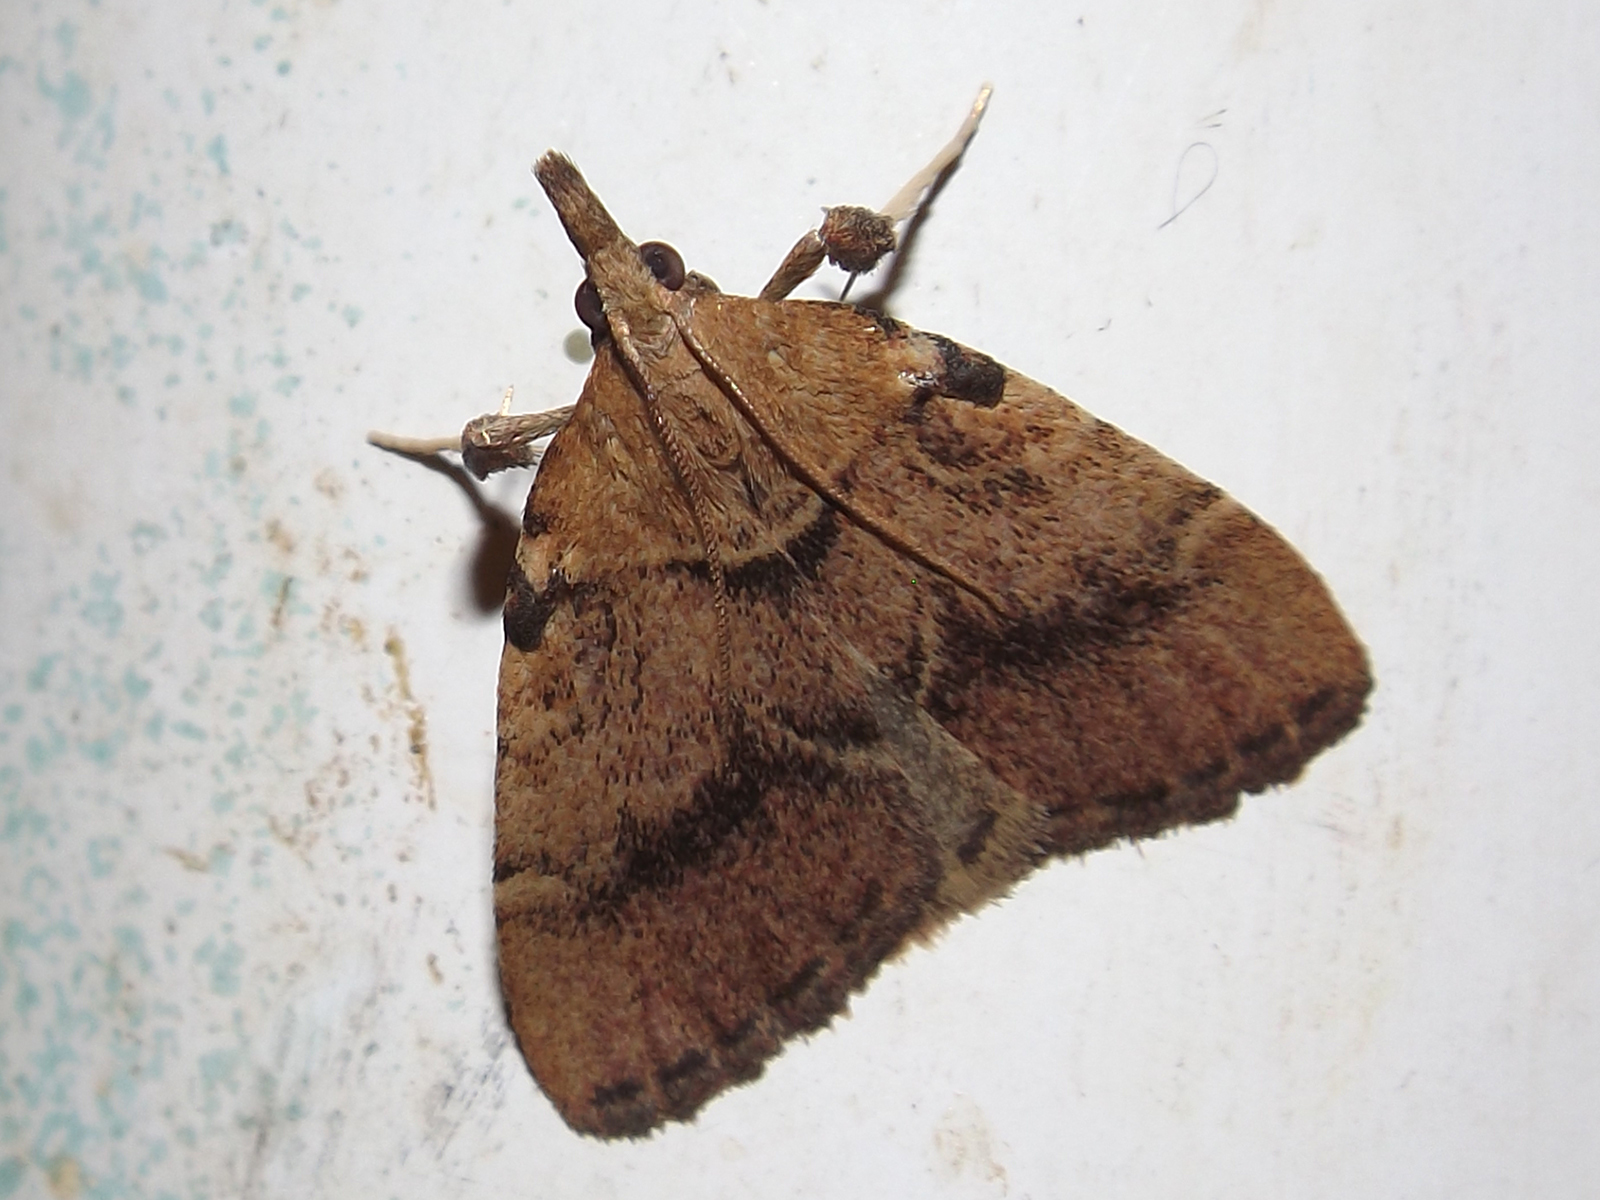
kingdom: Animalia
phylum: Arthropoda
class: Insecta
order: Lepidoptera
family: Pyralidae
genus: Blepharocerus
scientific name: Blepharocerus
